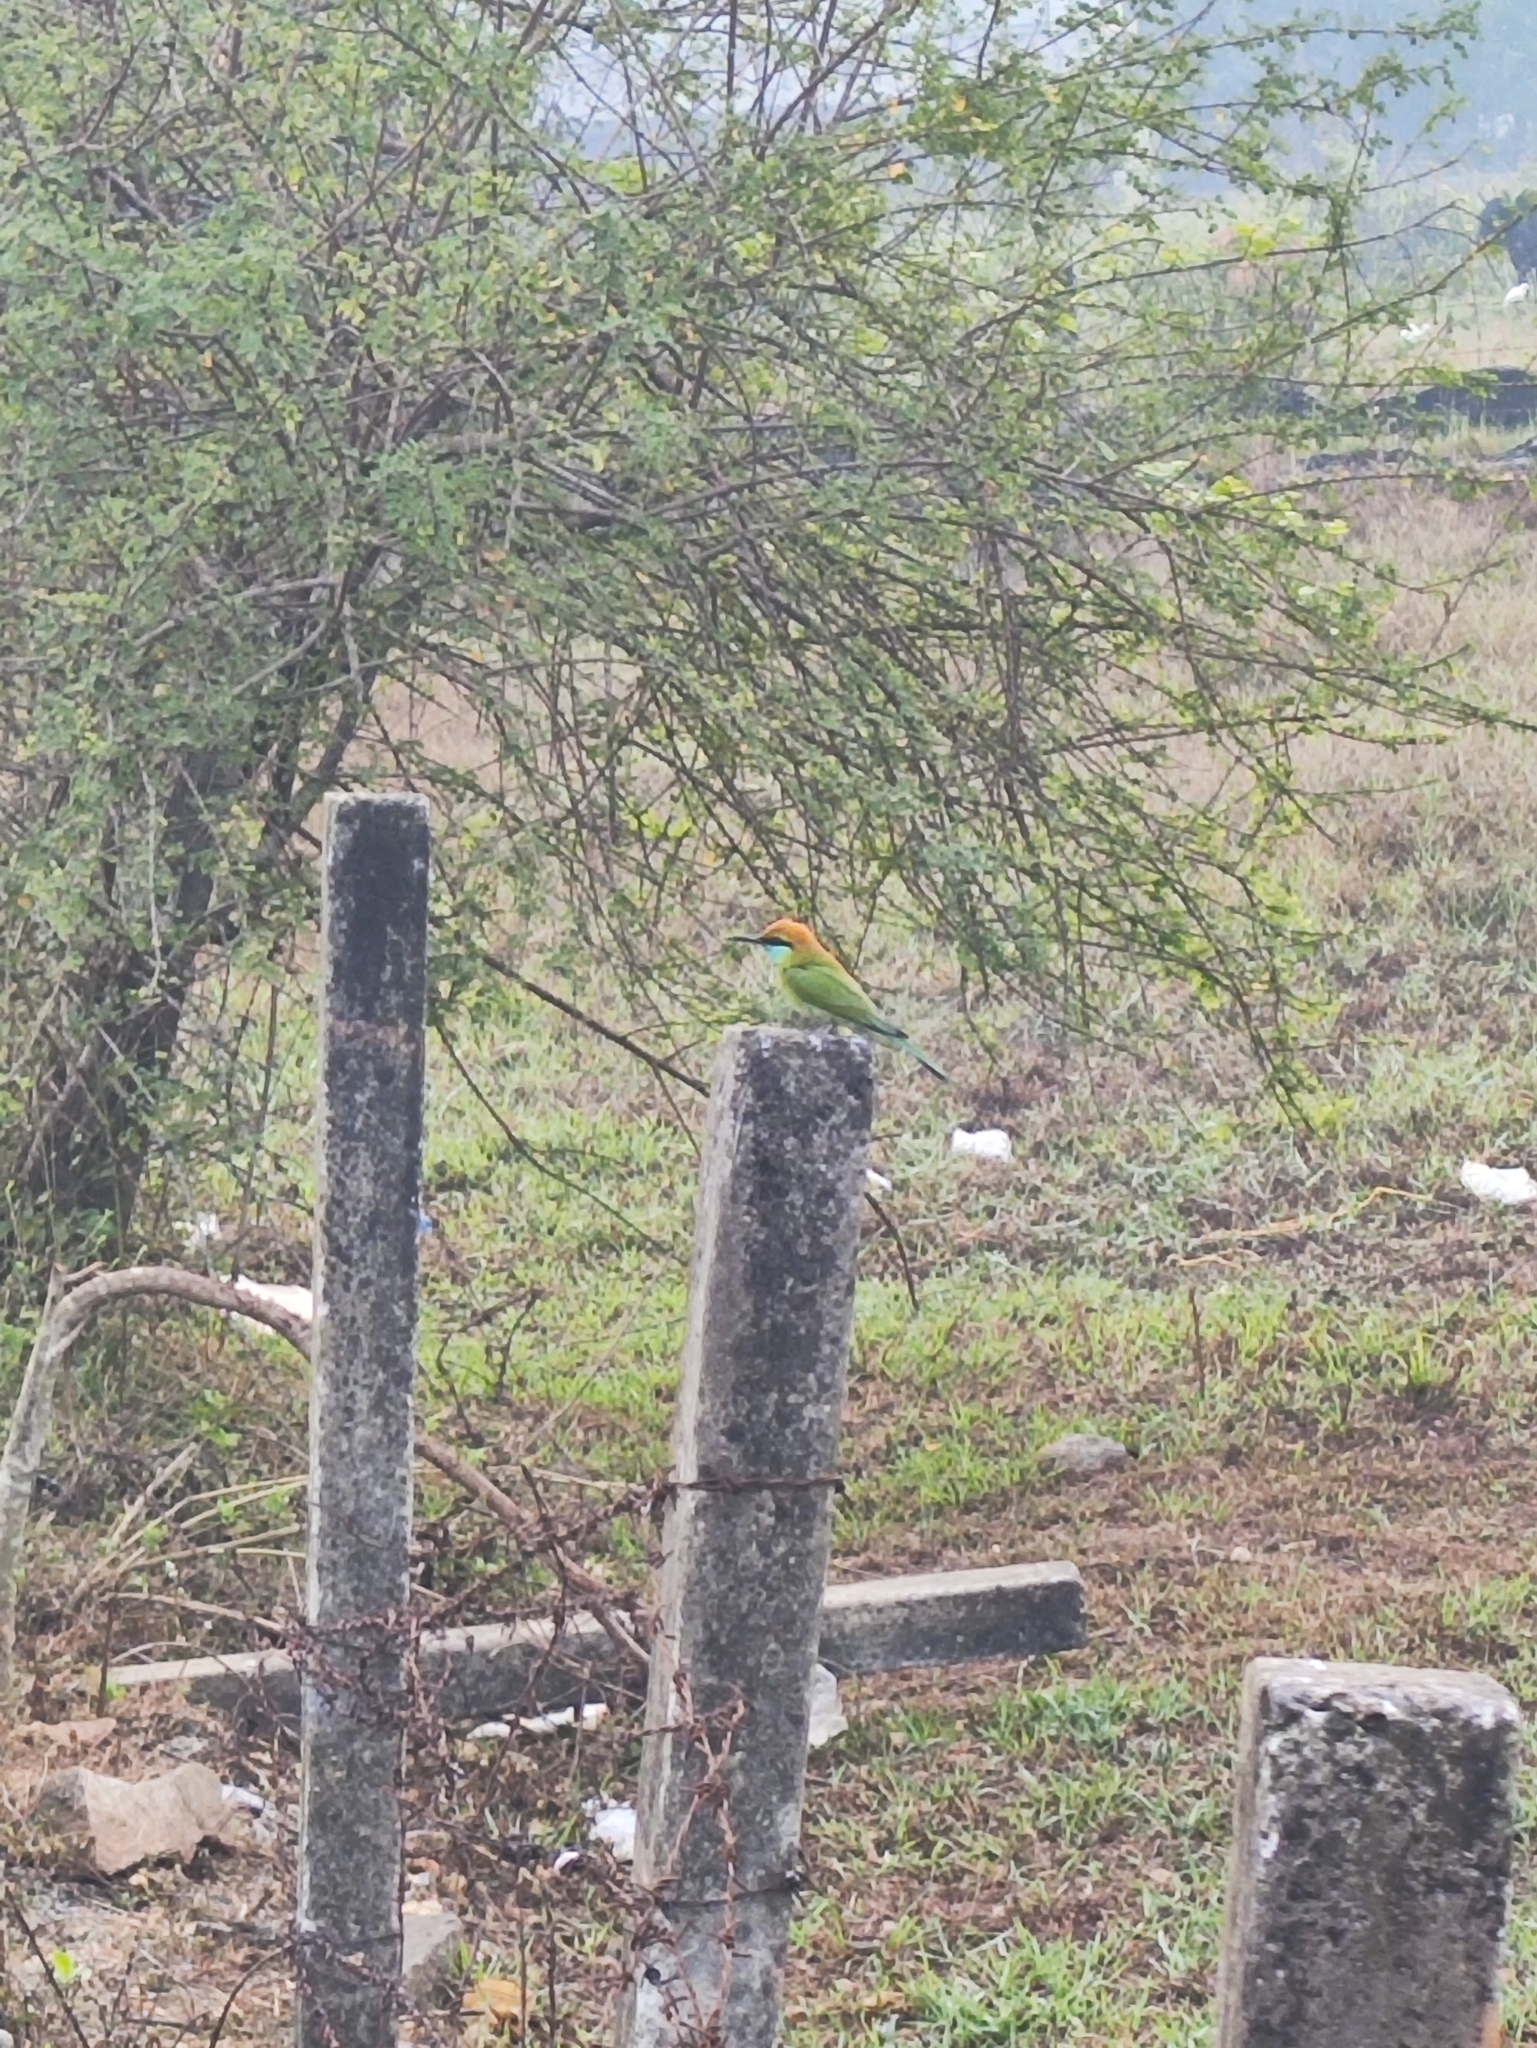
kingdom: Animalia
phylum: Chordata
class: Aves
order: Coraciiformes
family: Meropidae
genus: Merops
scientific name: Merops orientalis
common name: Green bee-eater
